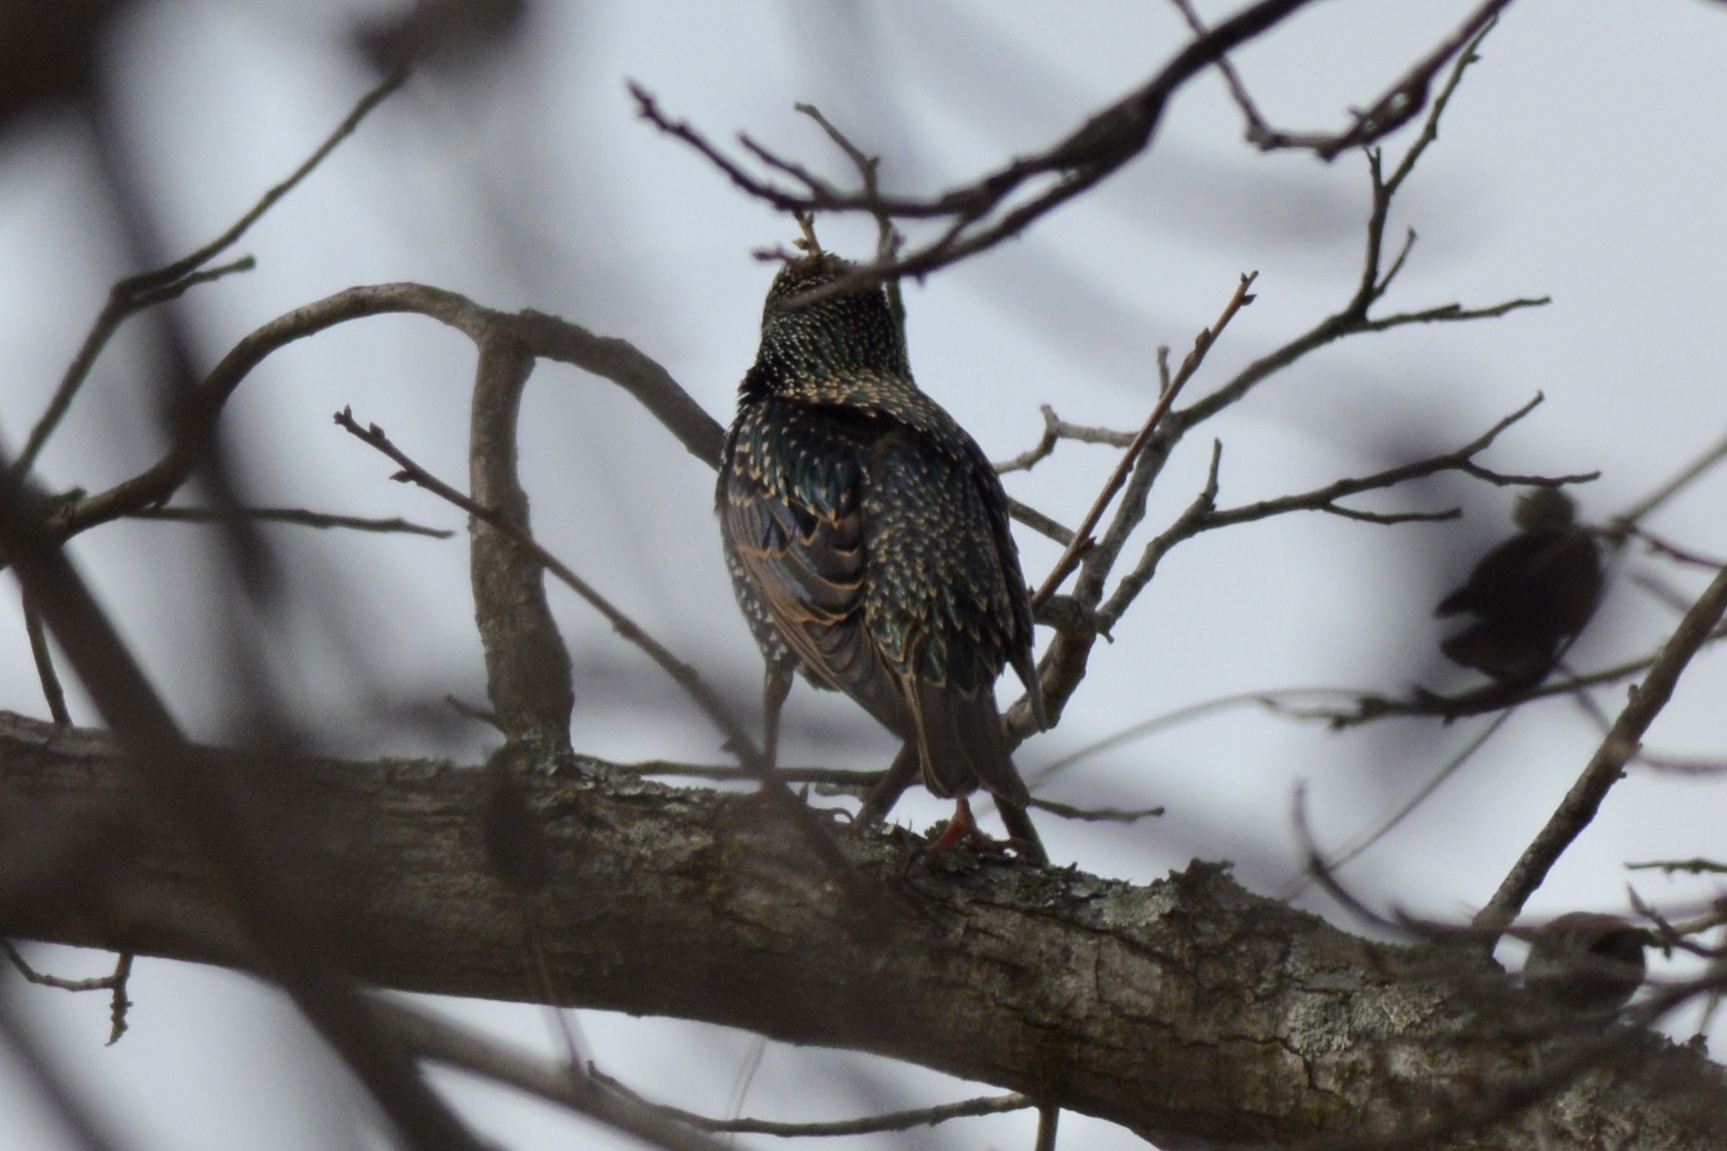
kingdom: Animalia
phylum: Chordata
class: Aves
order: Passeriformes
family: Sturnidae
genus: Sturnus
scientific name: Sturnus vulgaris
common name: Common starling
